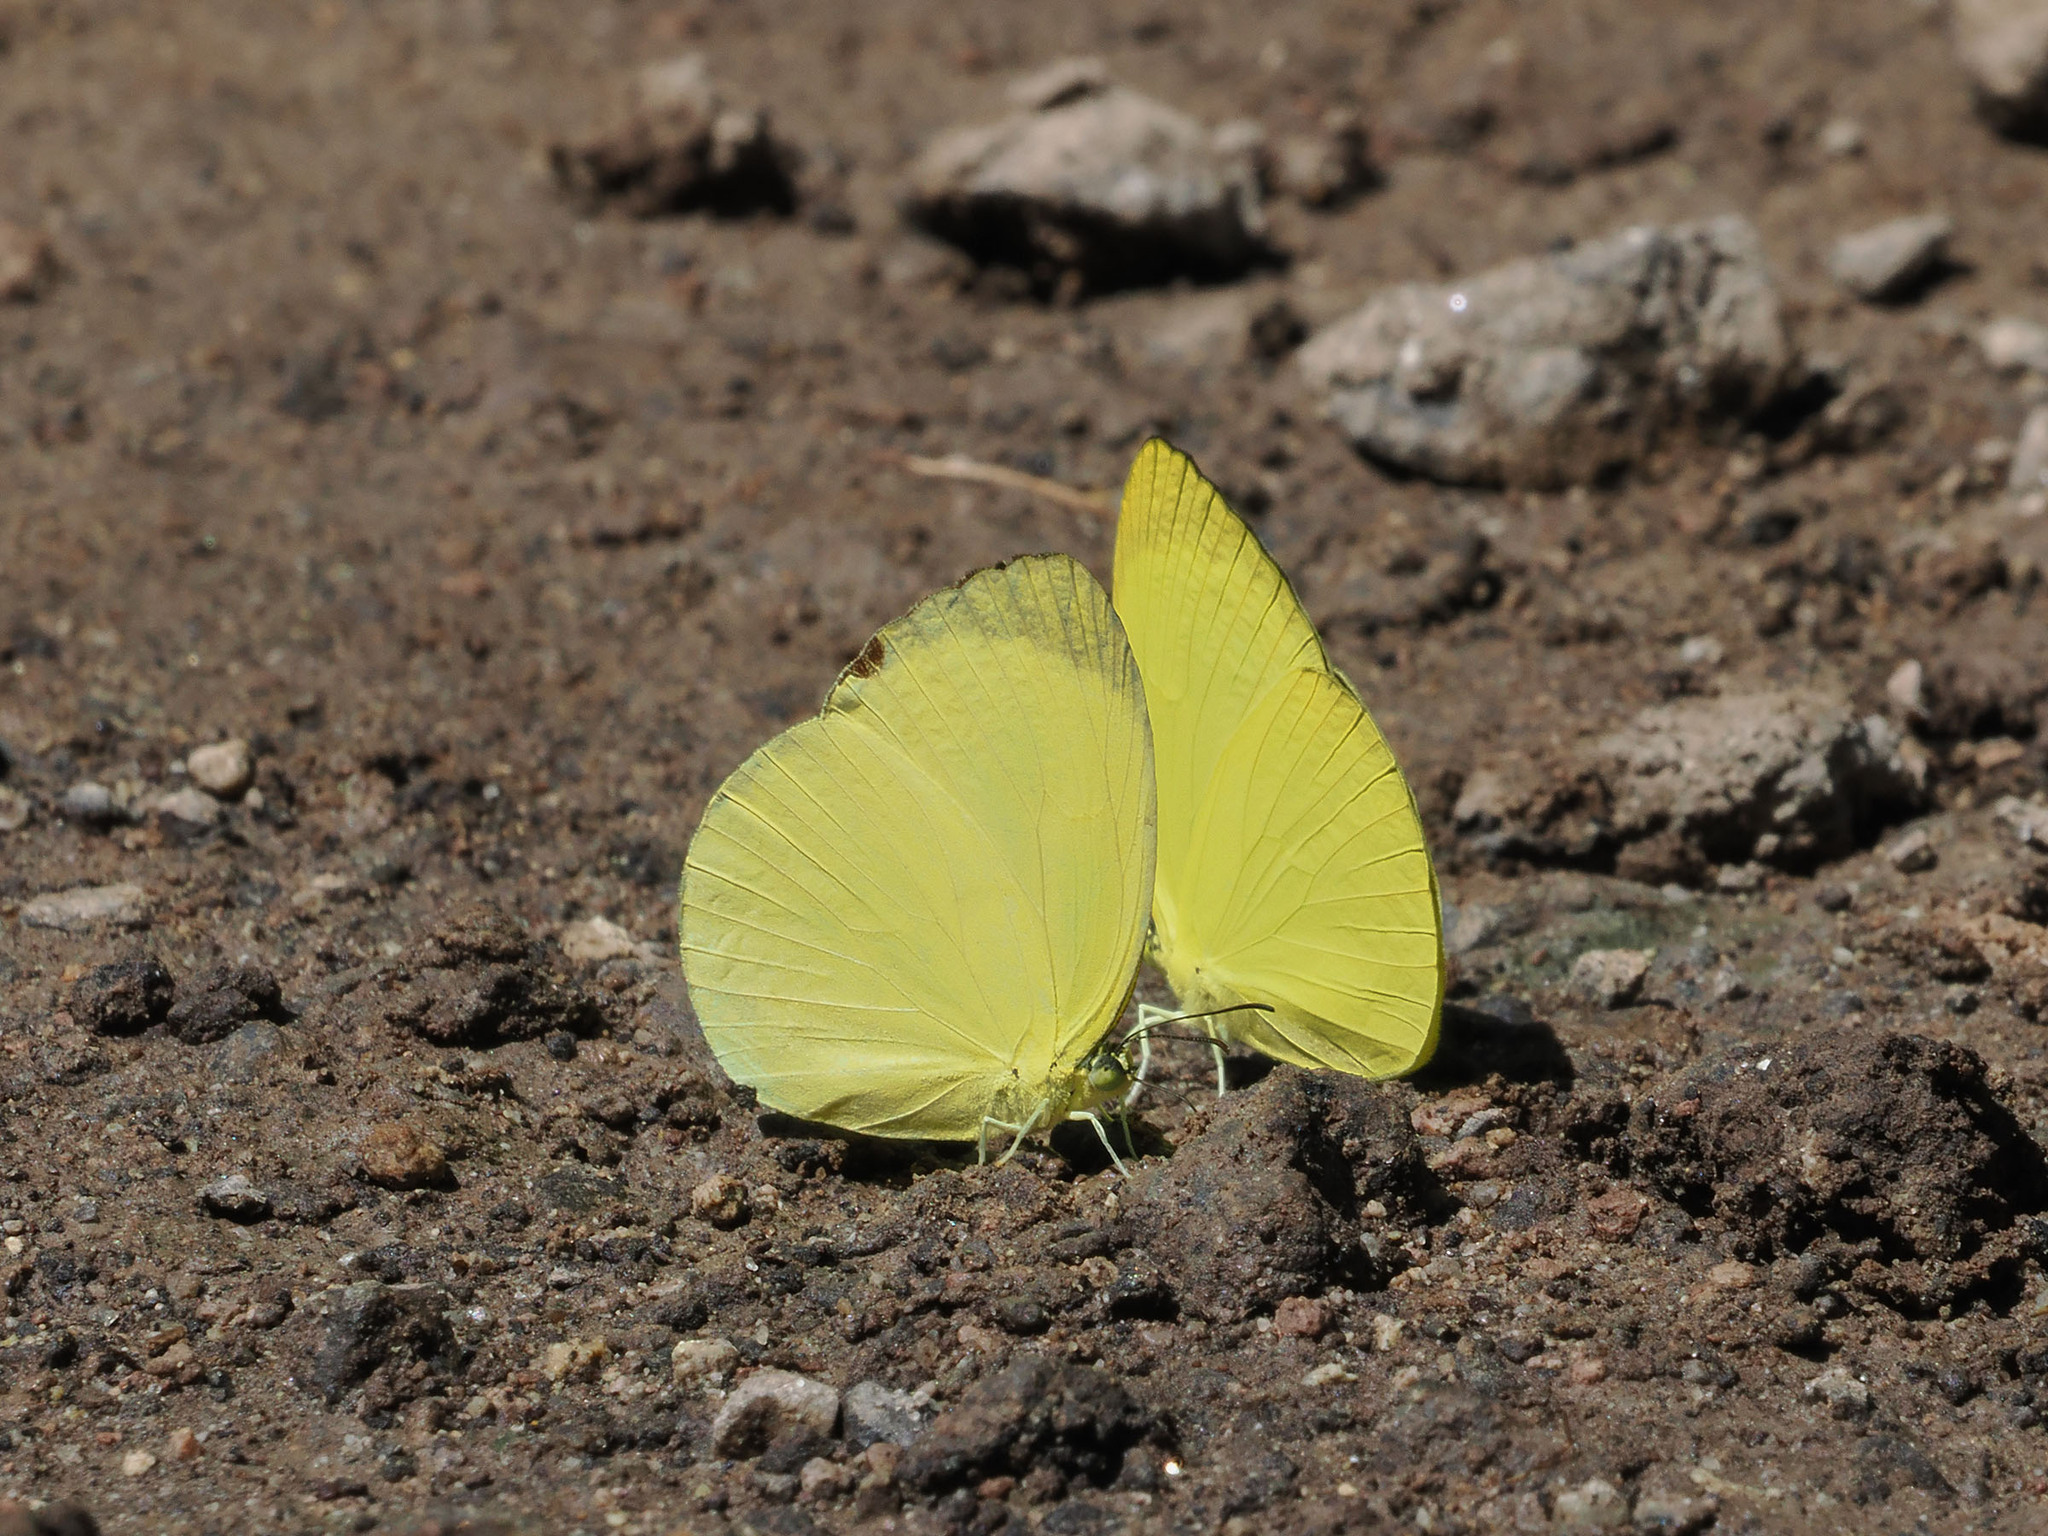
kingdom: Animalia
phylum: Arthropoda
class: Insecta
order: Lepidoptera
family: Pieridae
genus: Gandaca
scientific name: Gandaca harina
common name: Tree yellow
